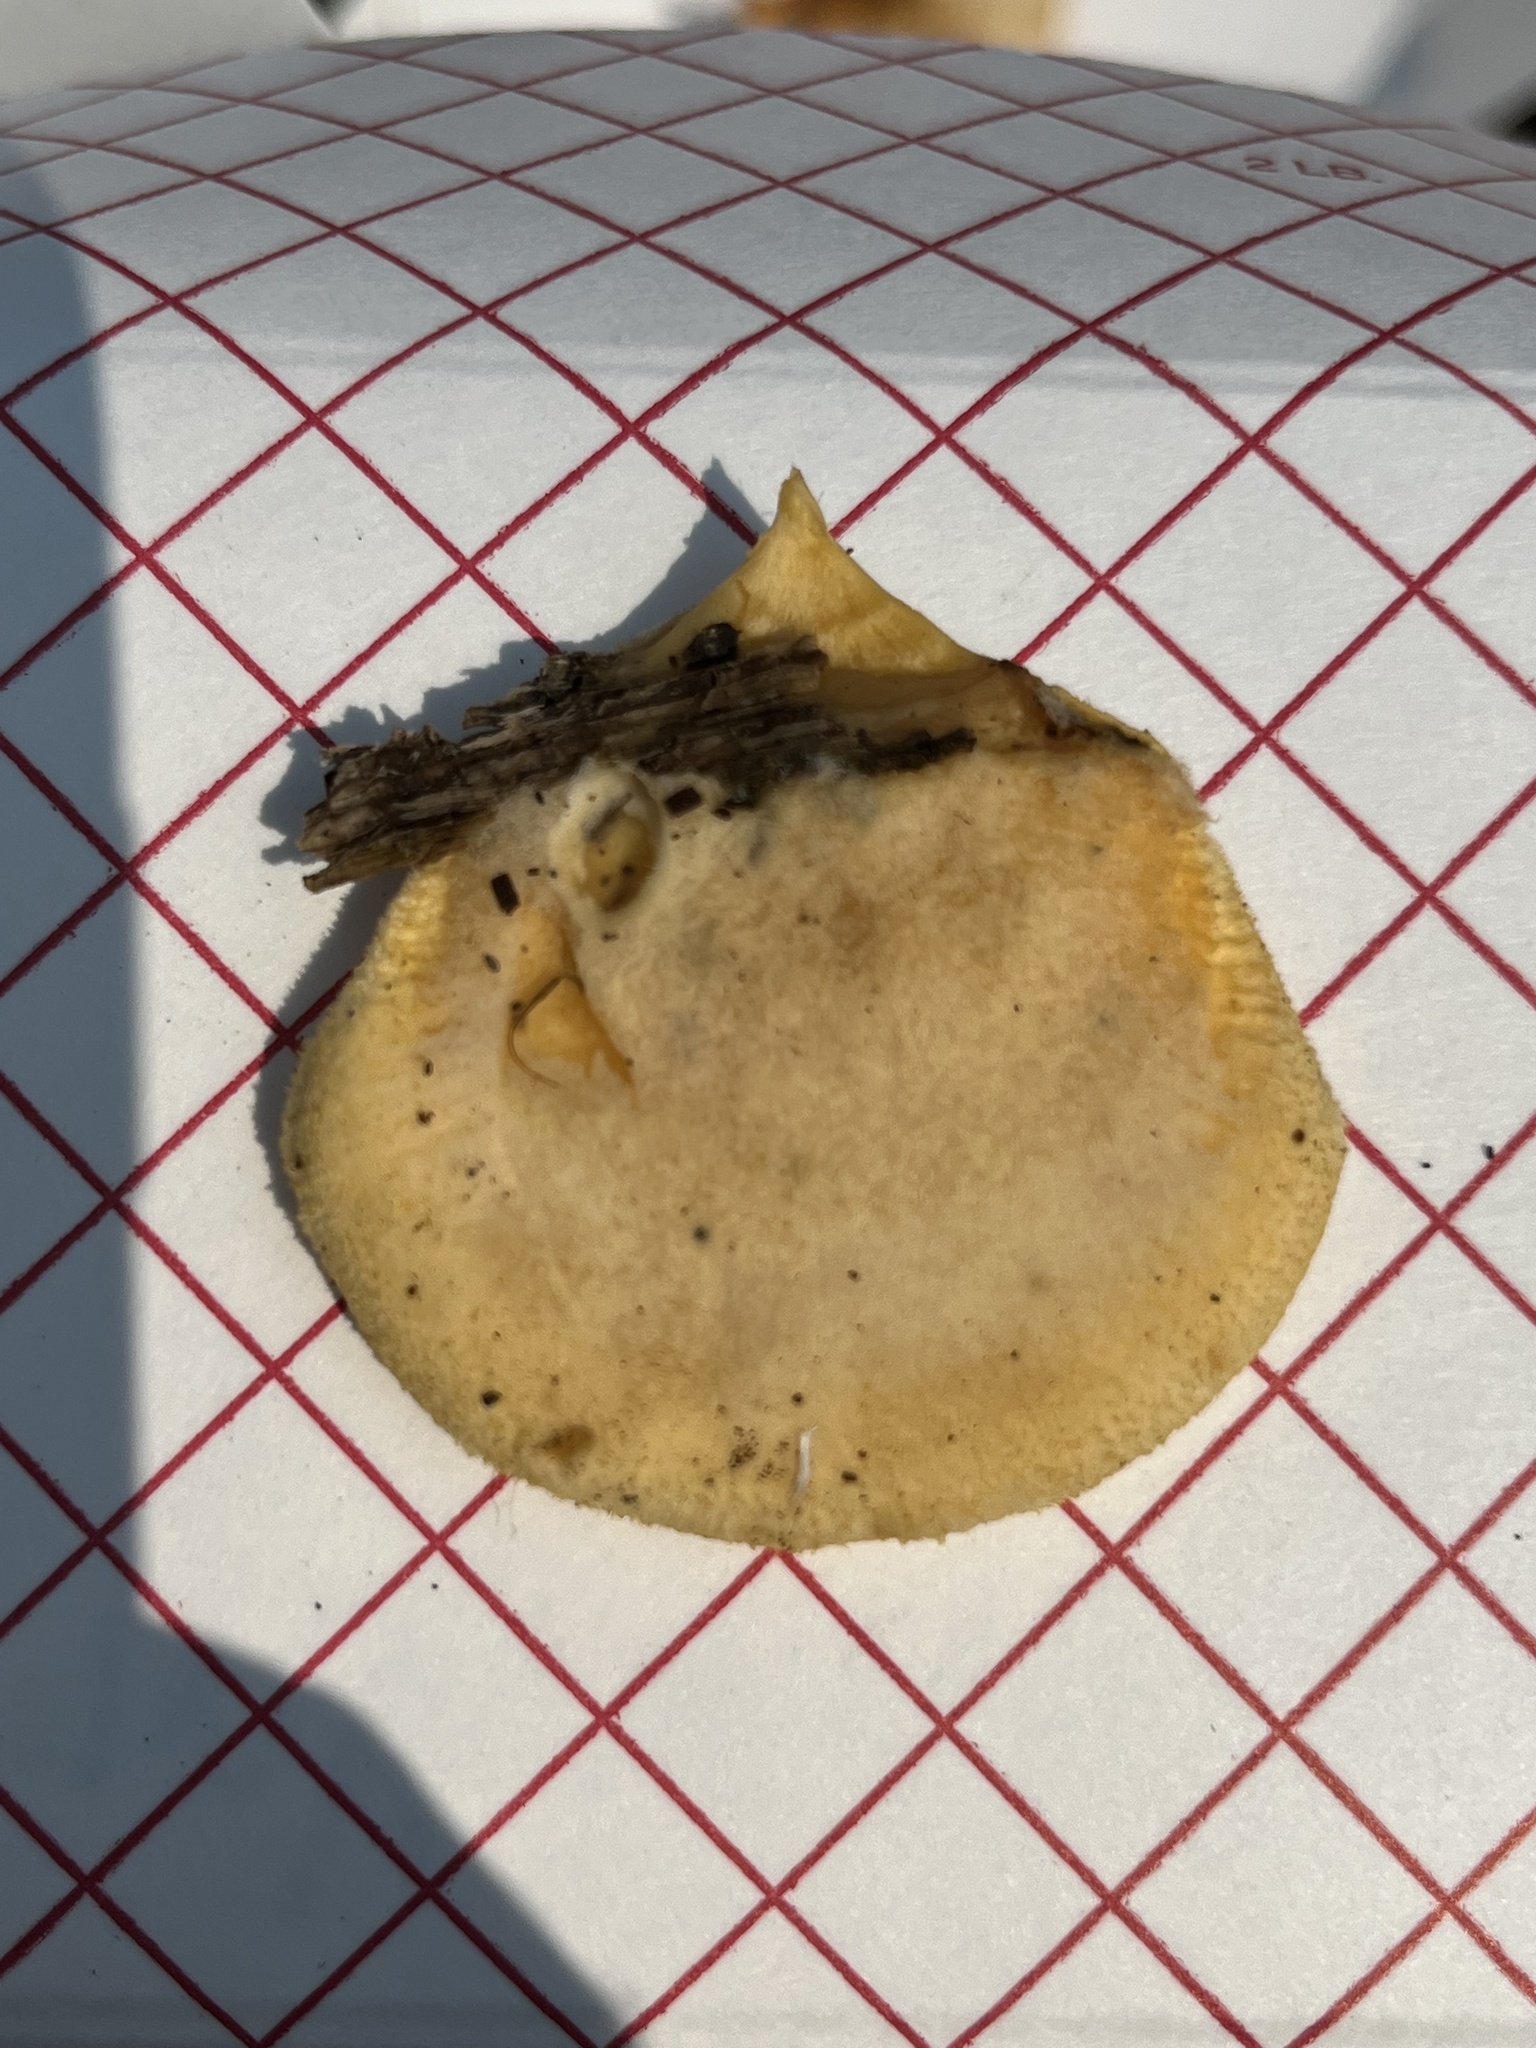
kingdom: Fungi
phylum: Basidiomycota
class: Agaricomycetes
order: Agaricales
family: Phyllotopsidaceae
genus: Phyllotopsis
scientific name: Phyllotopsis nidulans
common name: Orange mock oyster
